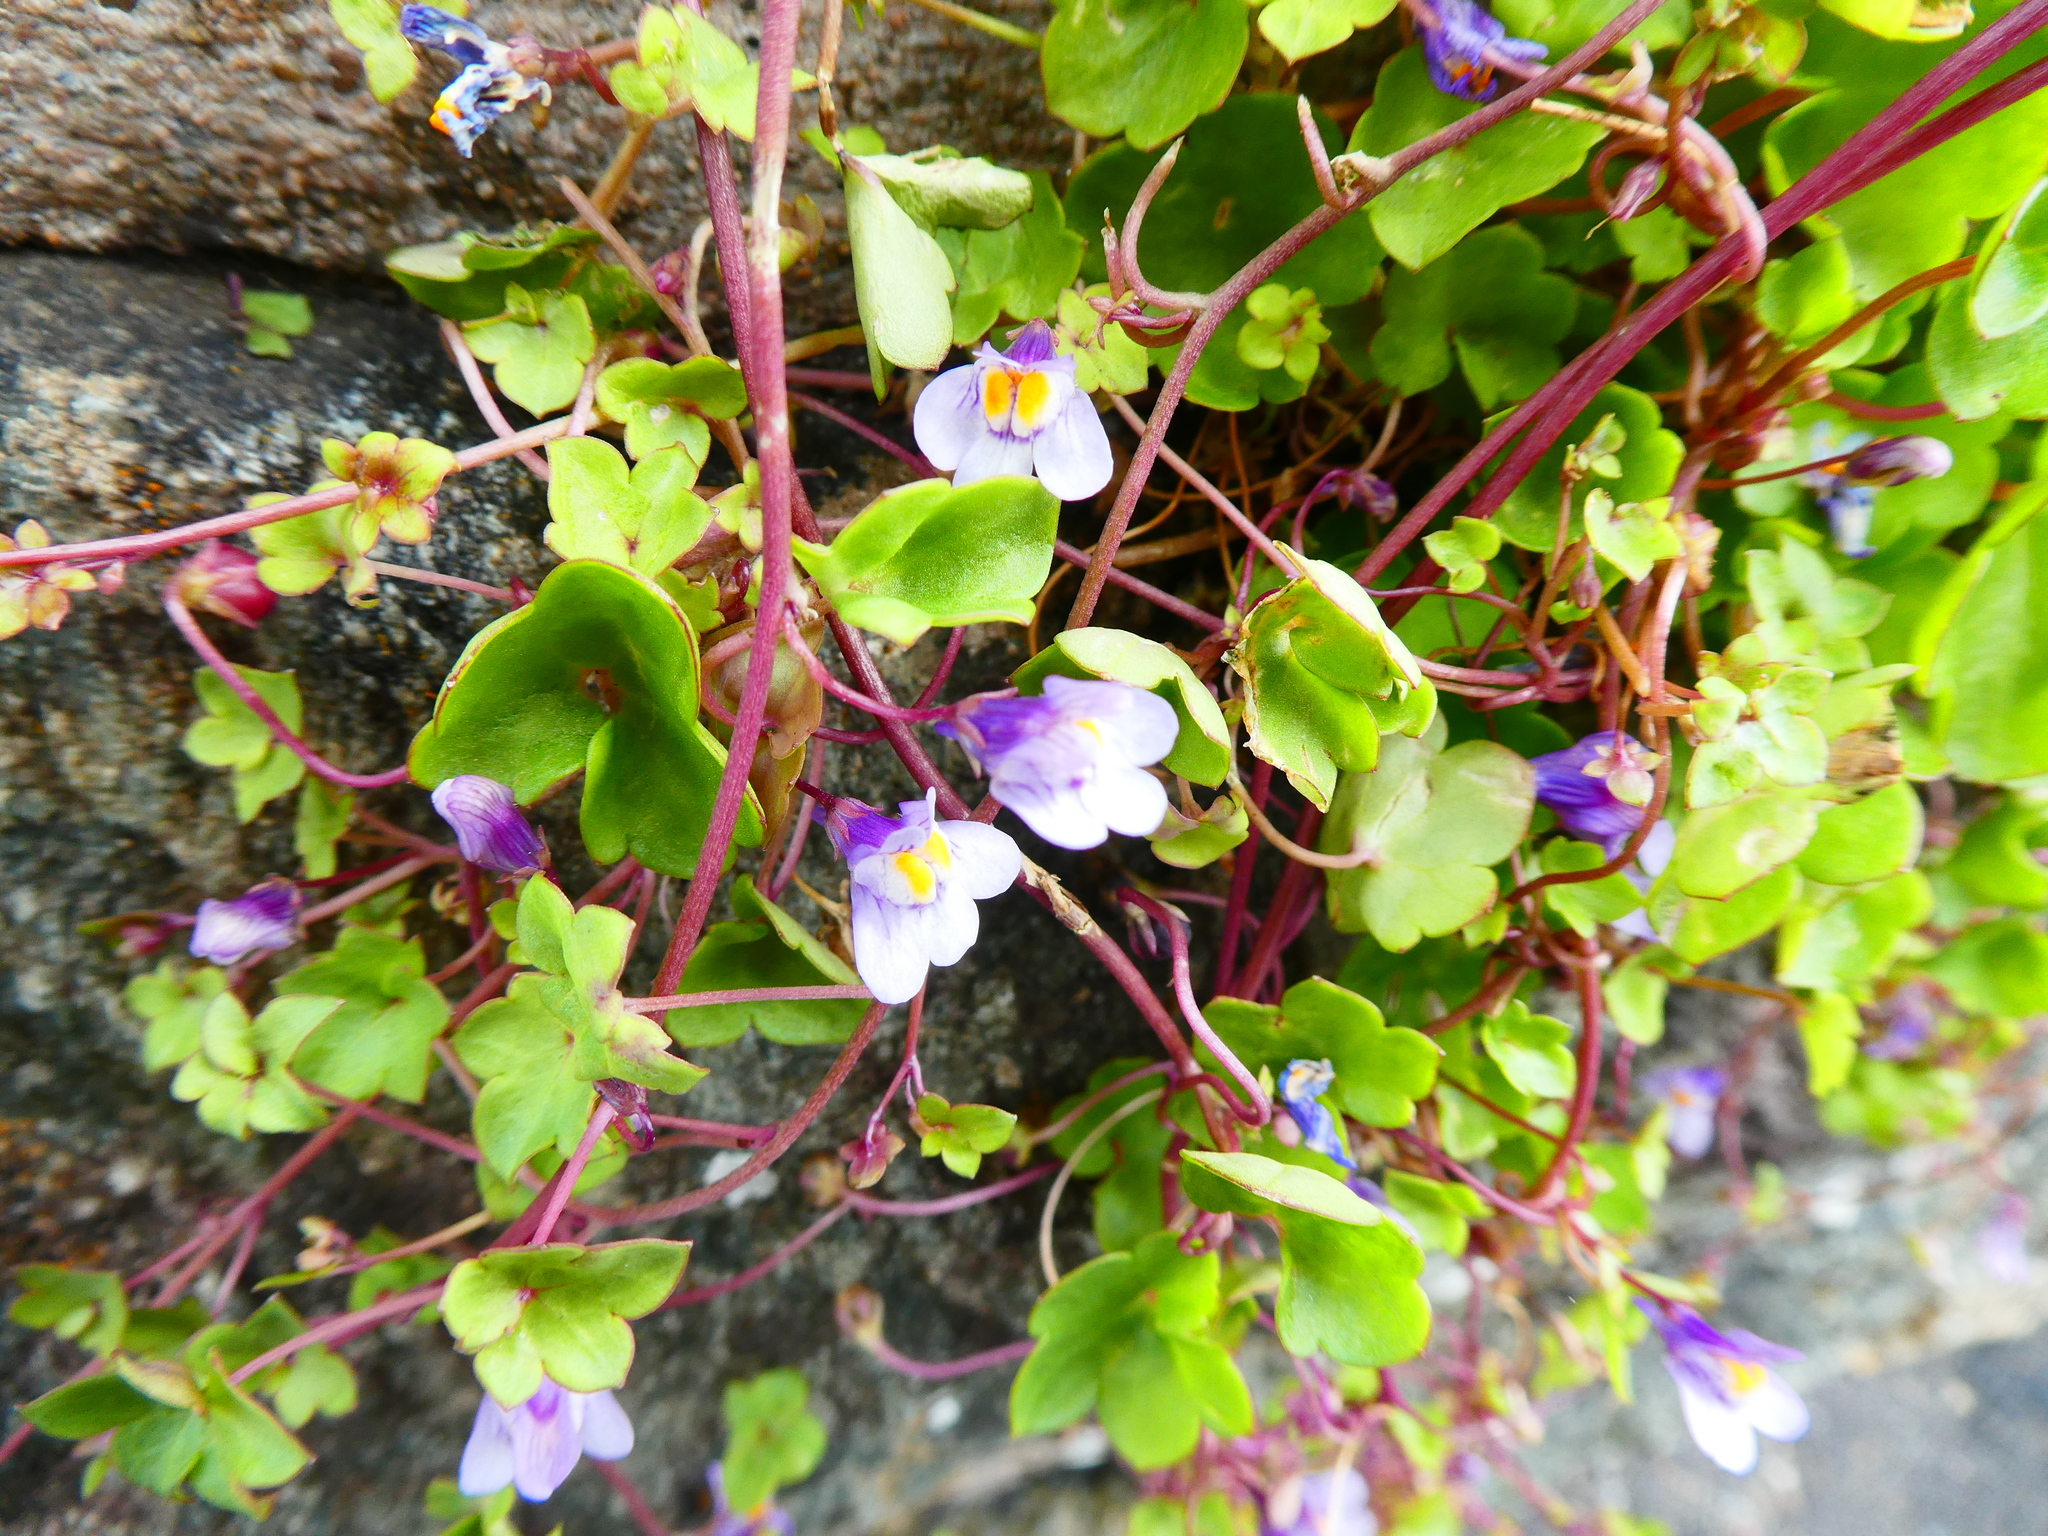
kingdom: Plantae
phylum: Tracheophyta
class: Magnoliopsida
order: Lamiales
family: Plantaginaceae
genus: Cymbalaria
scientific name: Cymbalaria muralis
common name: Ivy-leaved toadflax
